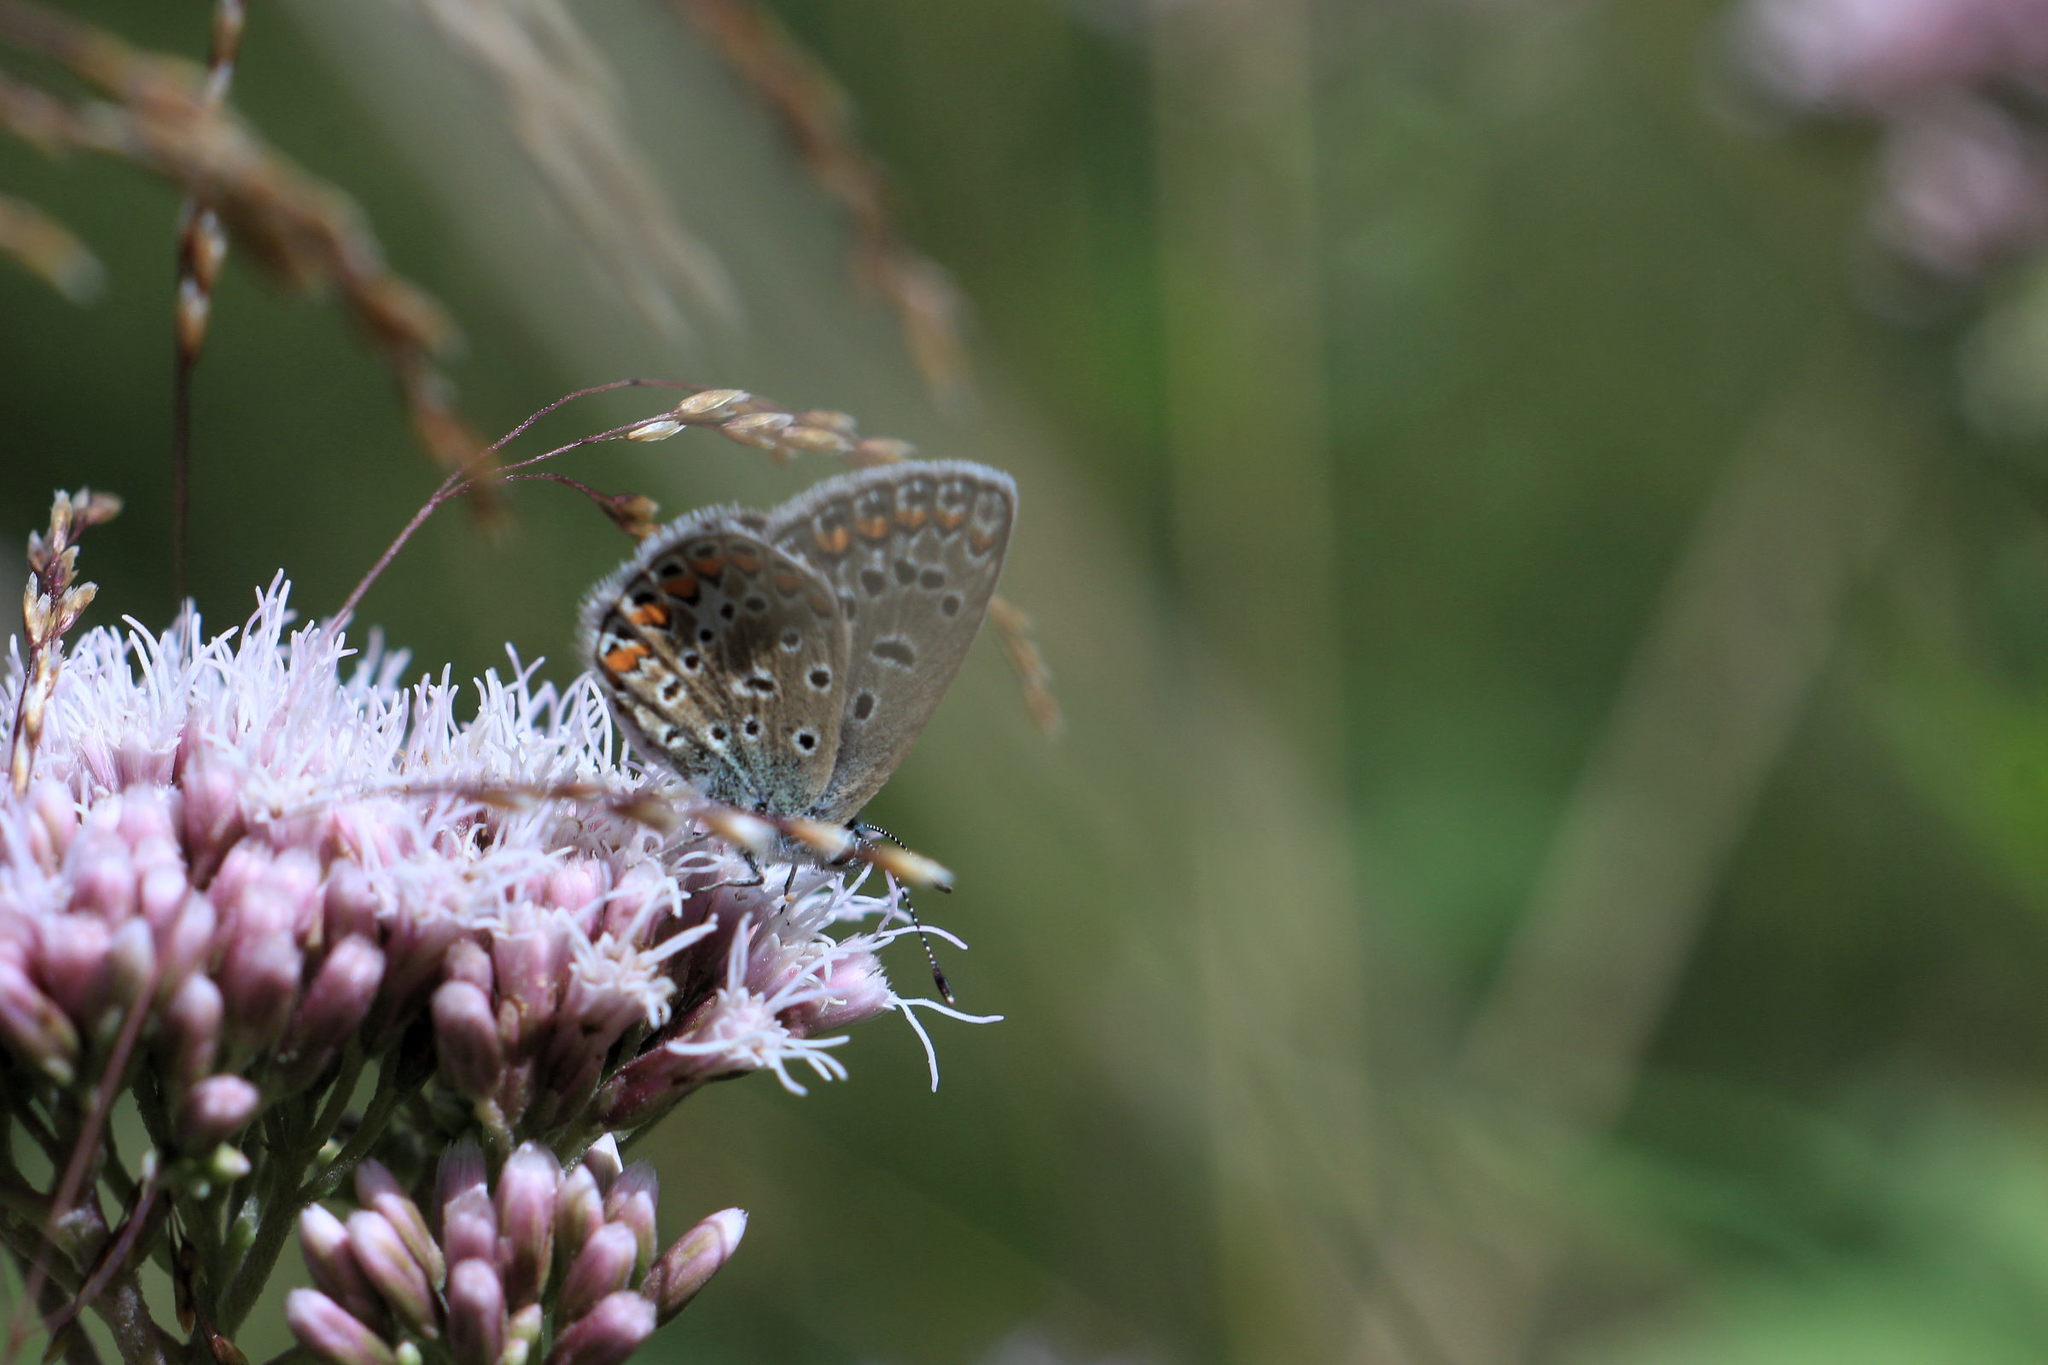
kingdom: Animalia
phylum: Arthropoda
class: Insecta
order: Lepidoptera
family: Lycaenidae
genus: Polyommatus
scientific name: Polyommatus icarus
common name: Common blue
